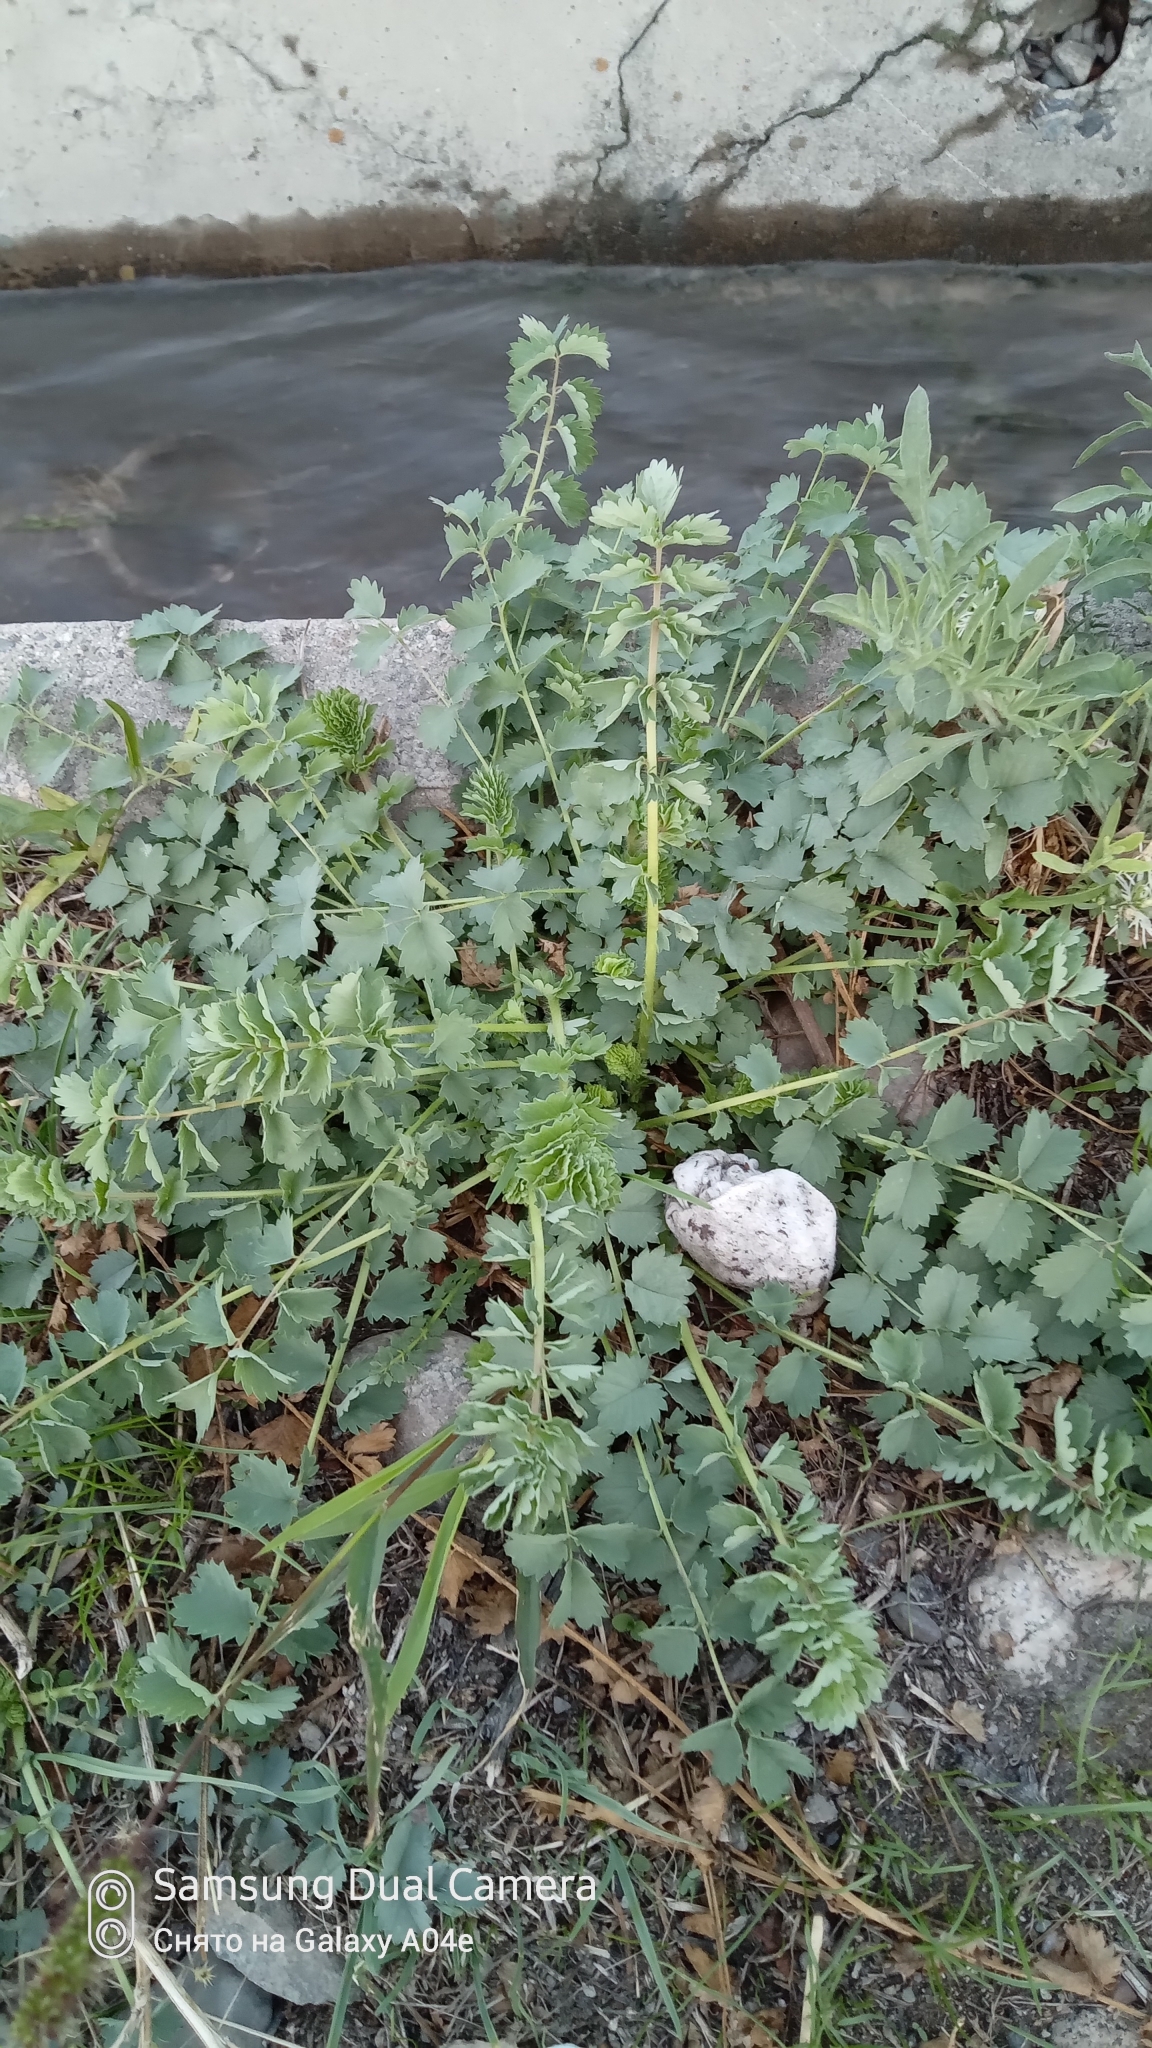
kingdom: Plantae
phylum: Tracheophyta
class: Magnoliopsida
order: Rosales
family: Rosaceae
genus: Poterium
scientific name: Poterium sanguisorba
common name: Salad burnet
